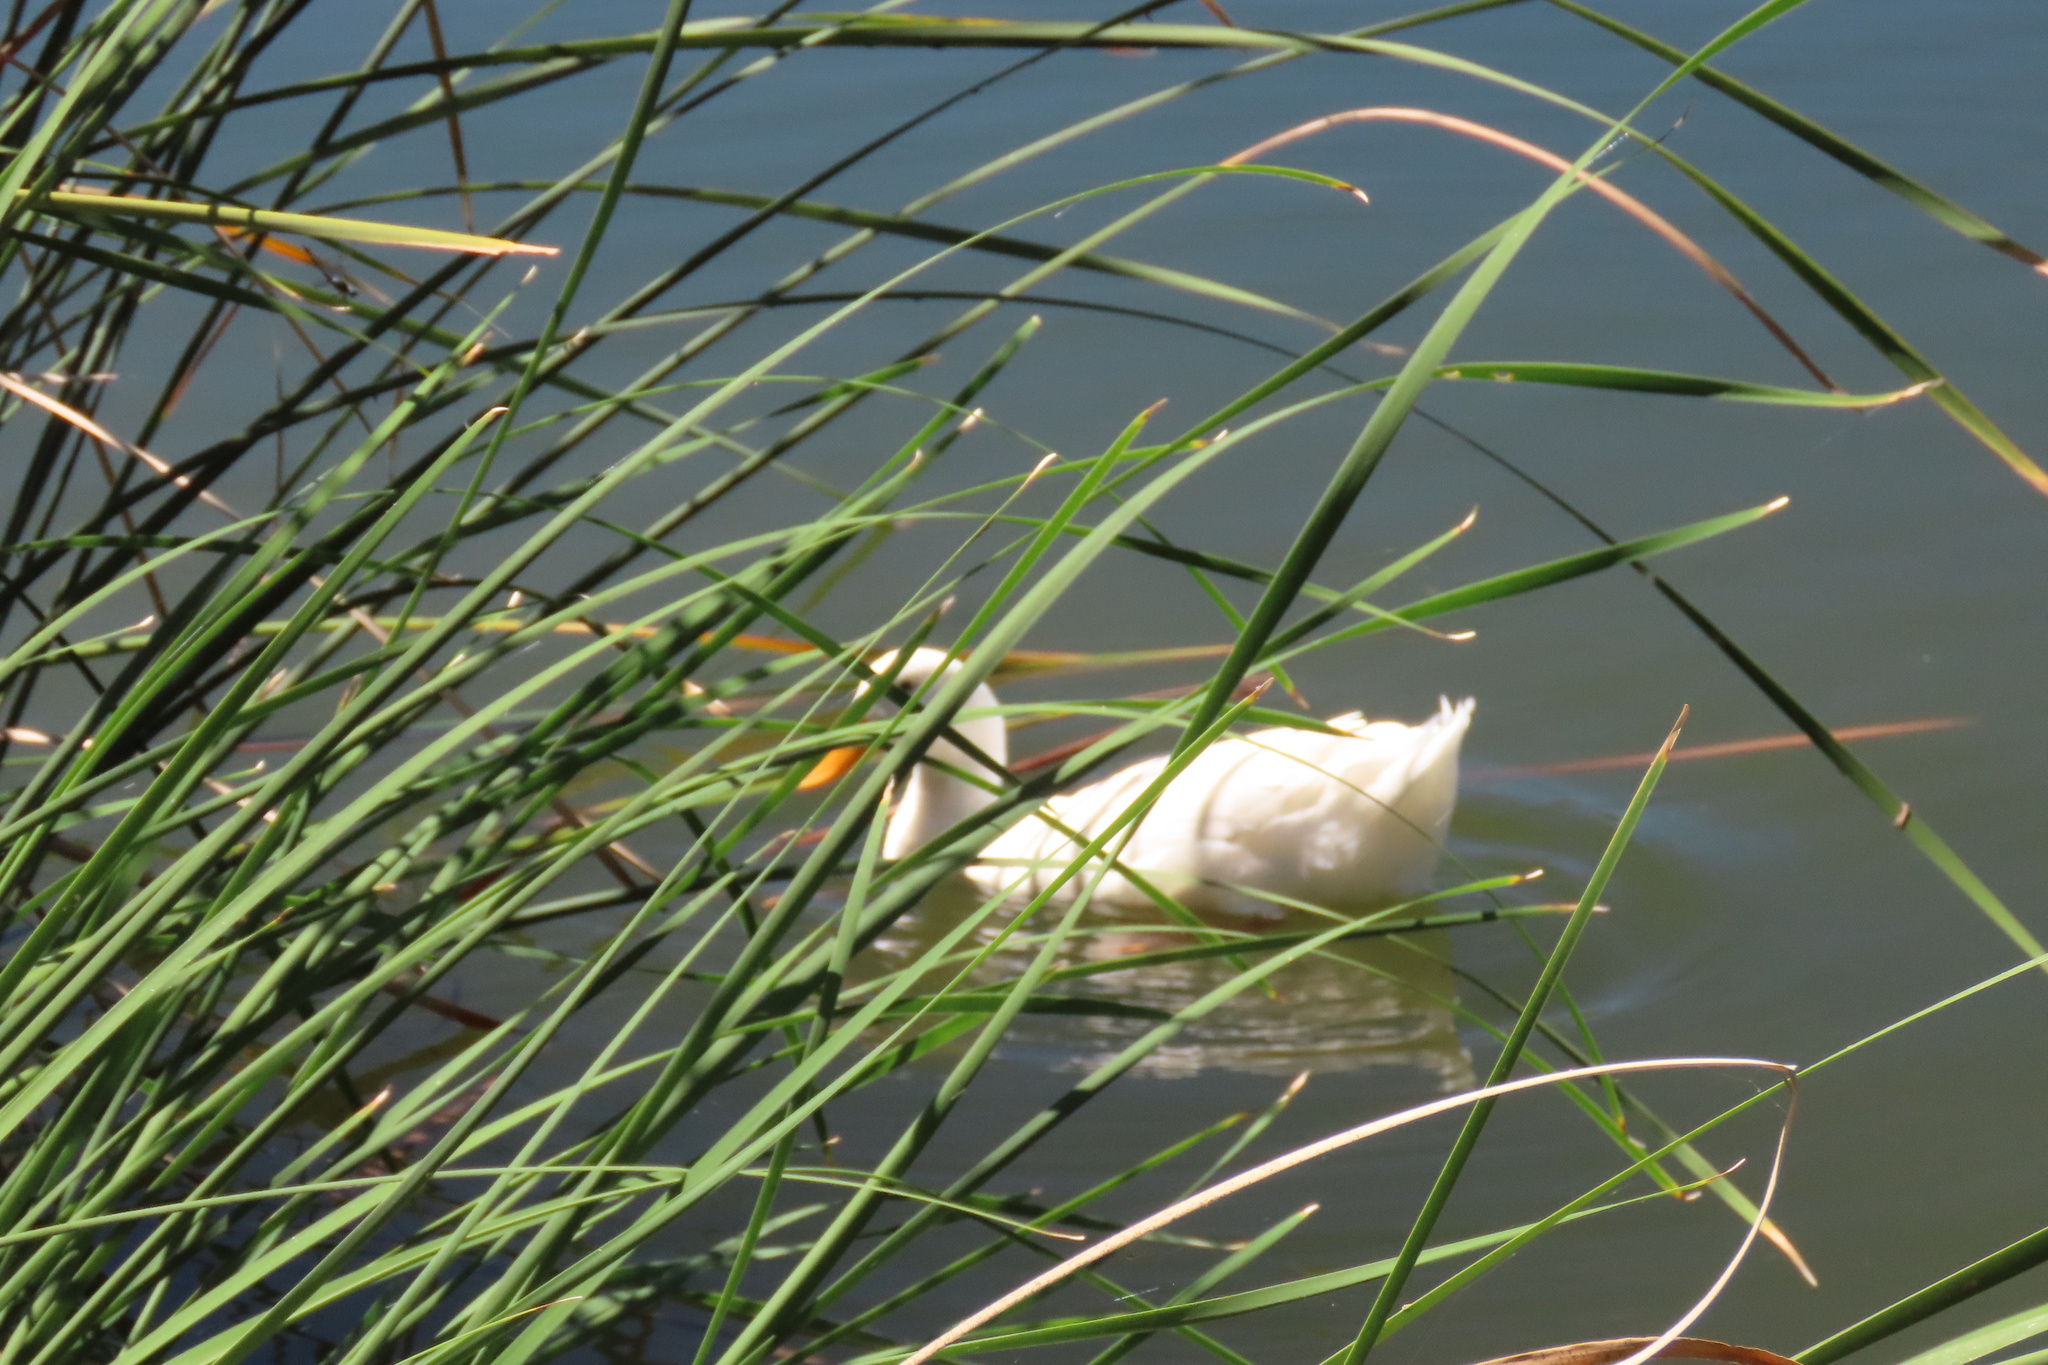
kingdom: Animalia
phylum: Chordata
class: Aves
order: Anseriformes
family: Anatidae
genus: Anas
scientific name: Anas platyrhynchos
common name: Mallard
